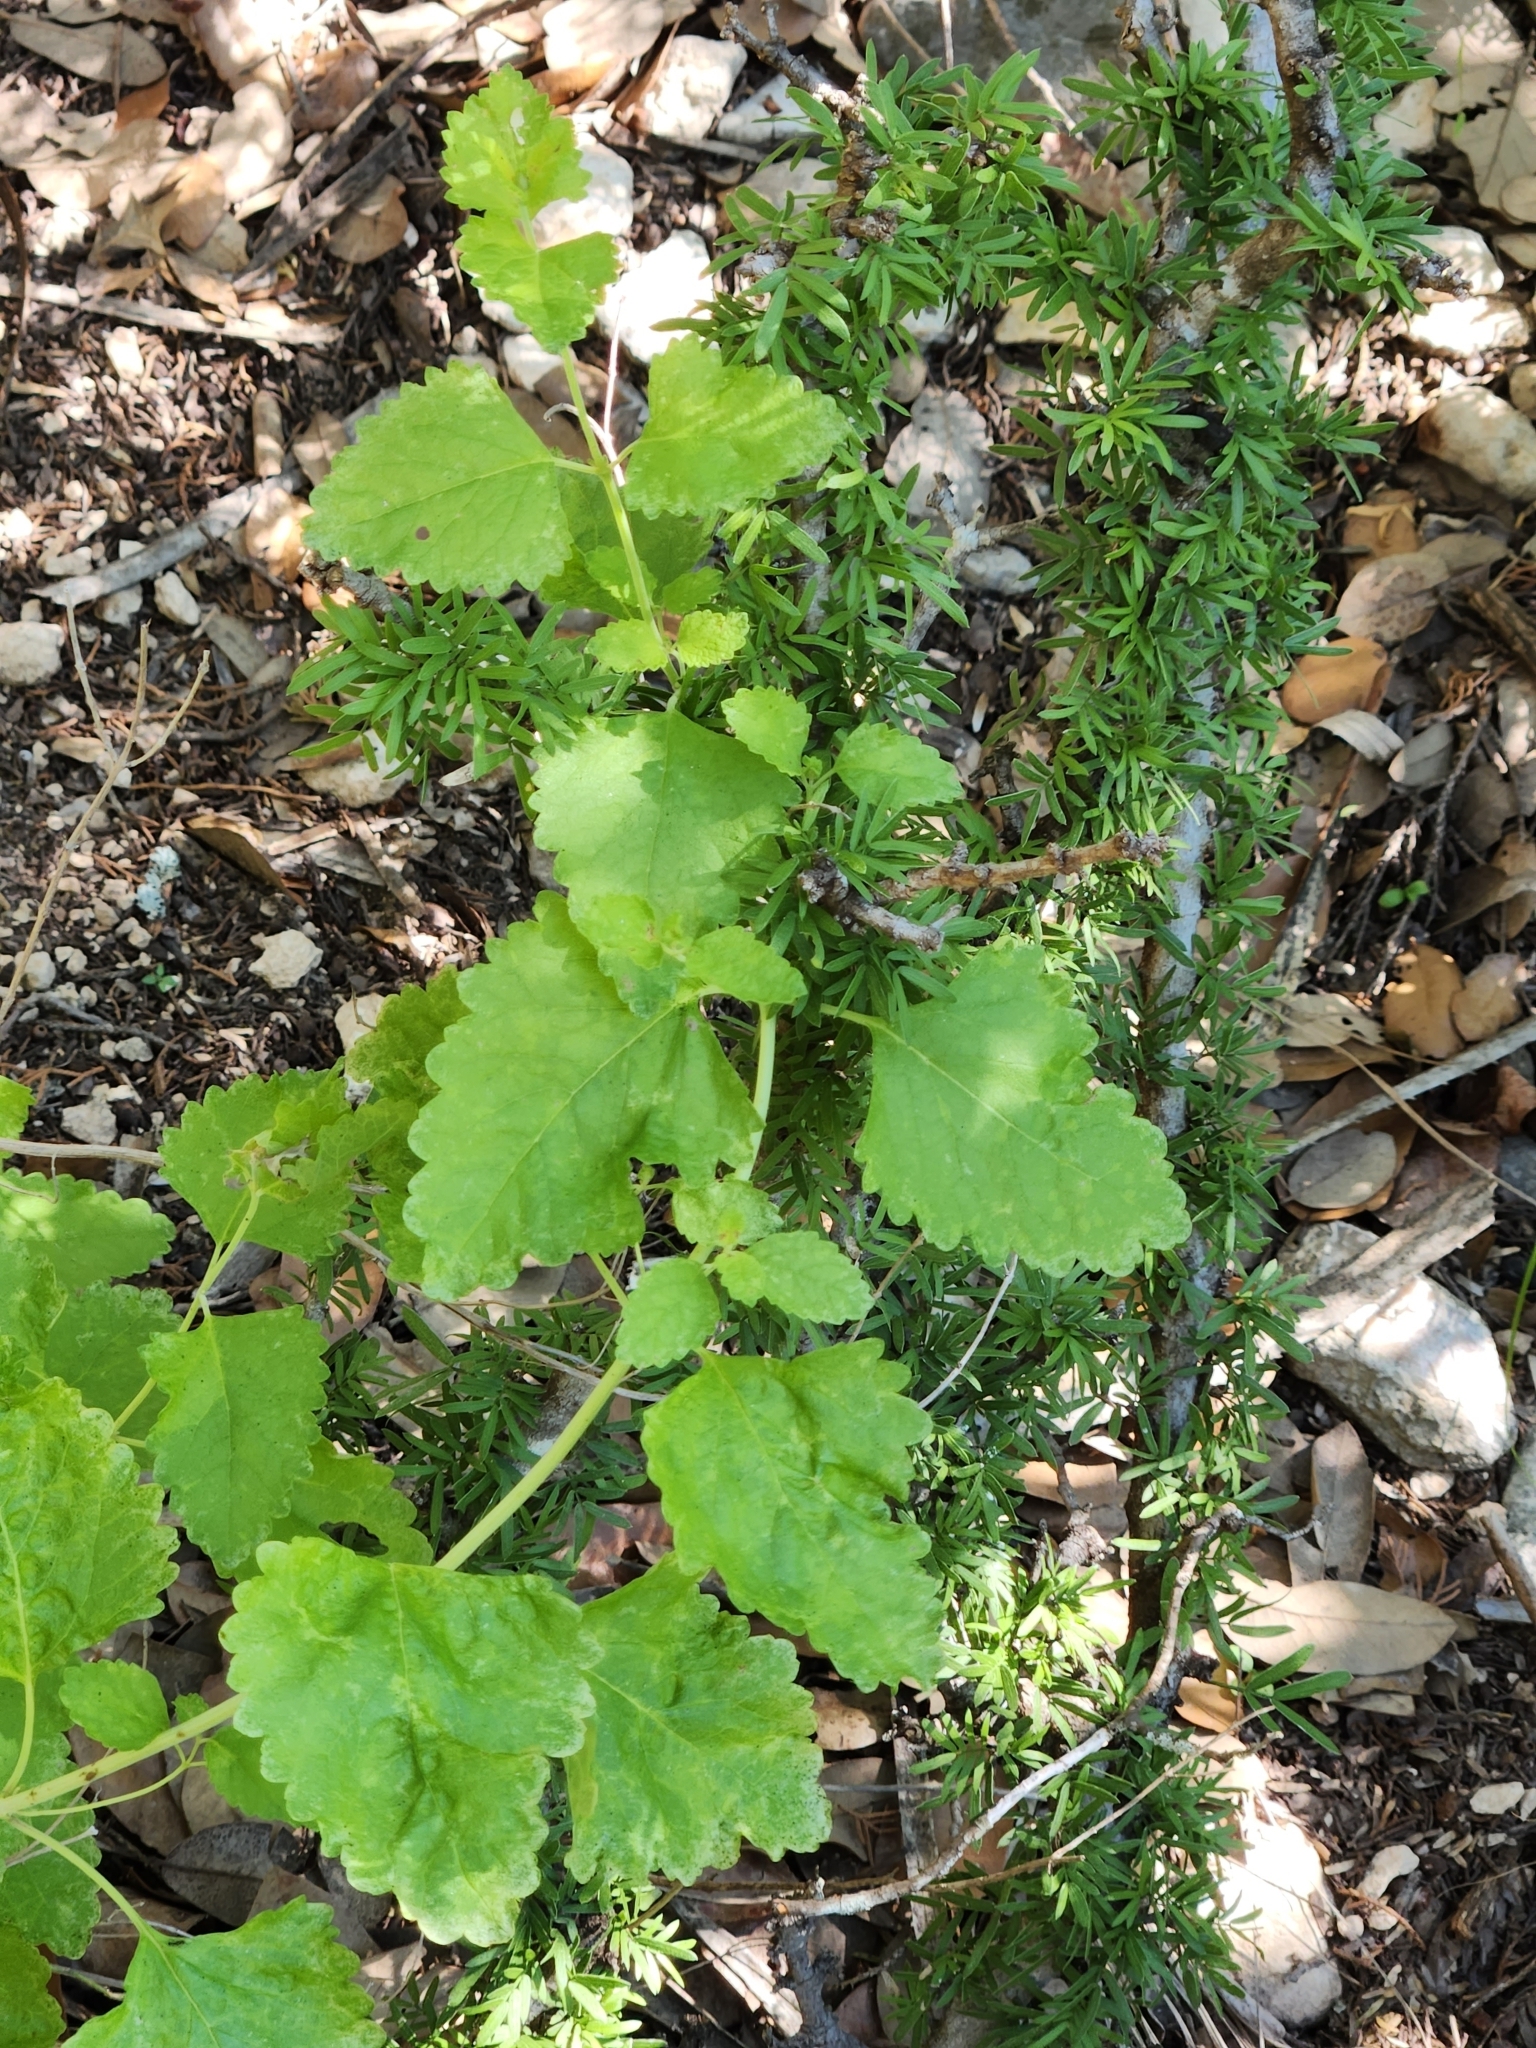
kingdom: Plantae
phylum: Tracheophyta
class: Magnoliopsida
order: Lamiales
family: Lamiaceae
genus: Salvia
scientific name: Salvia ballotiflora
